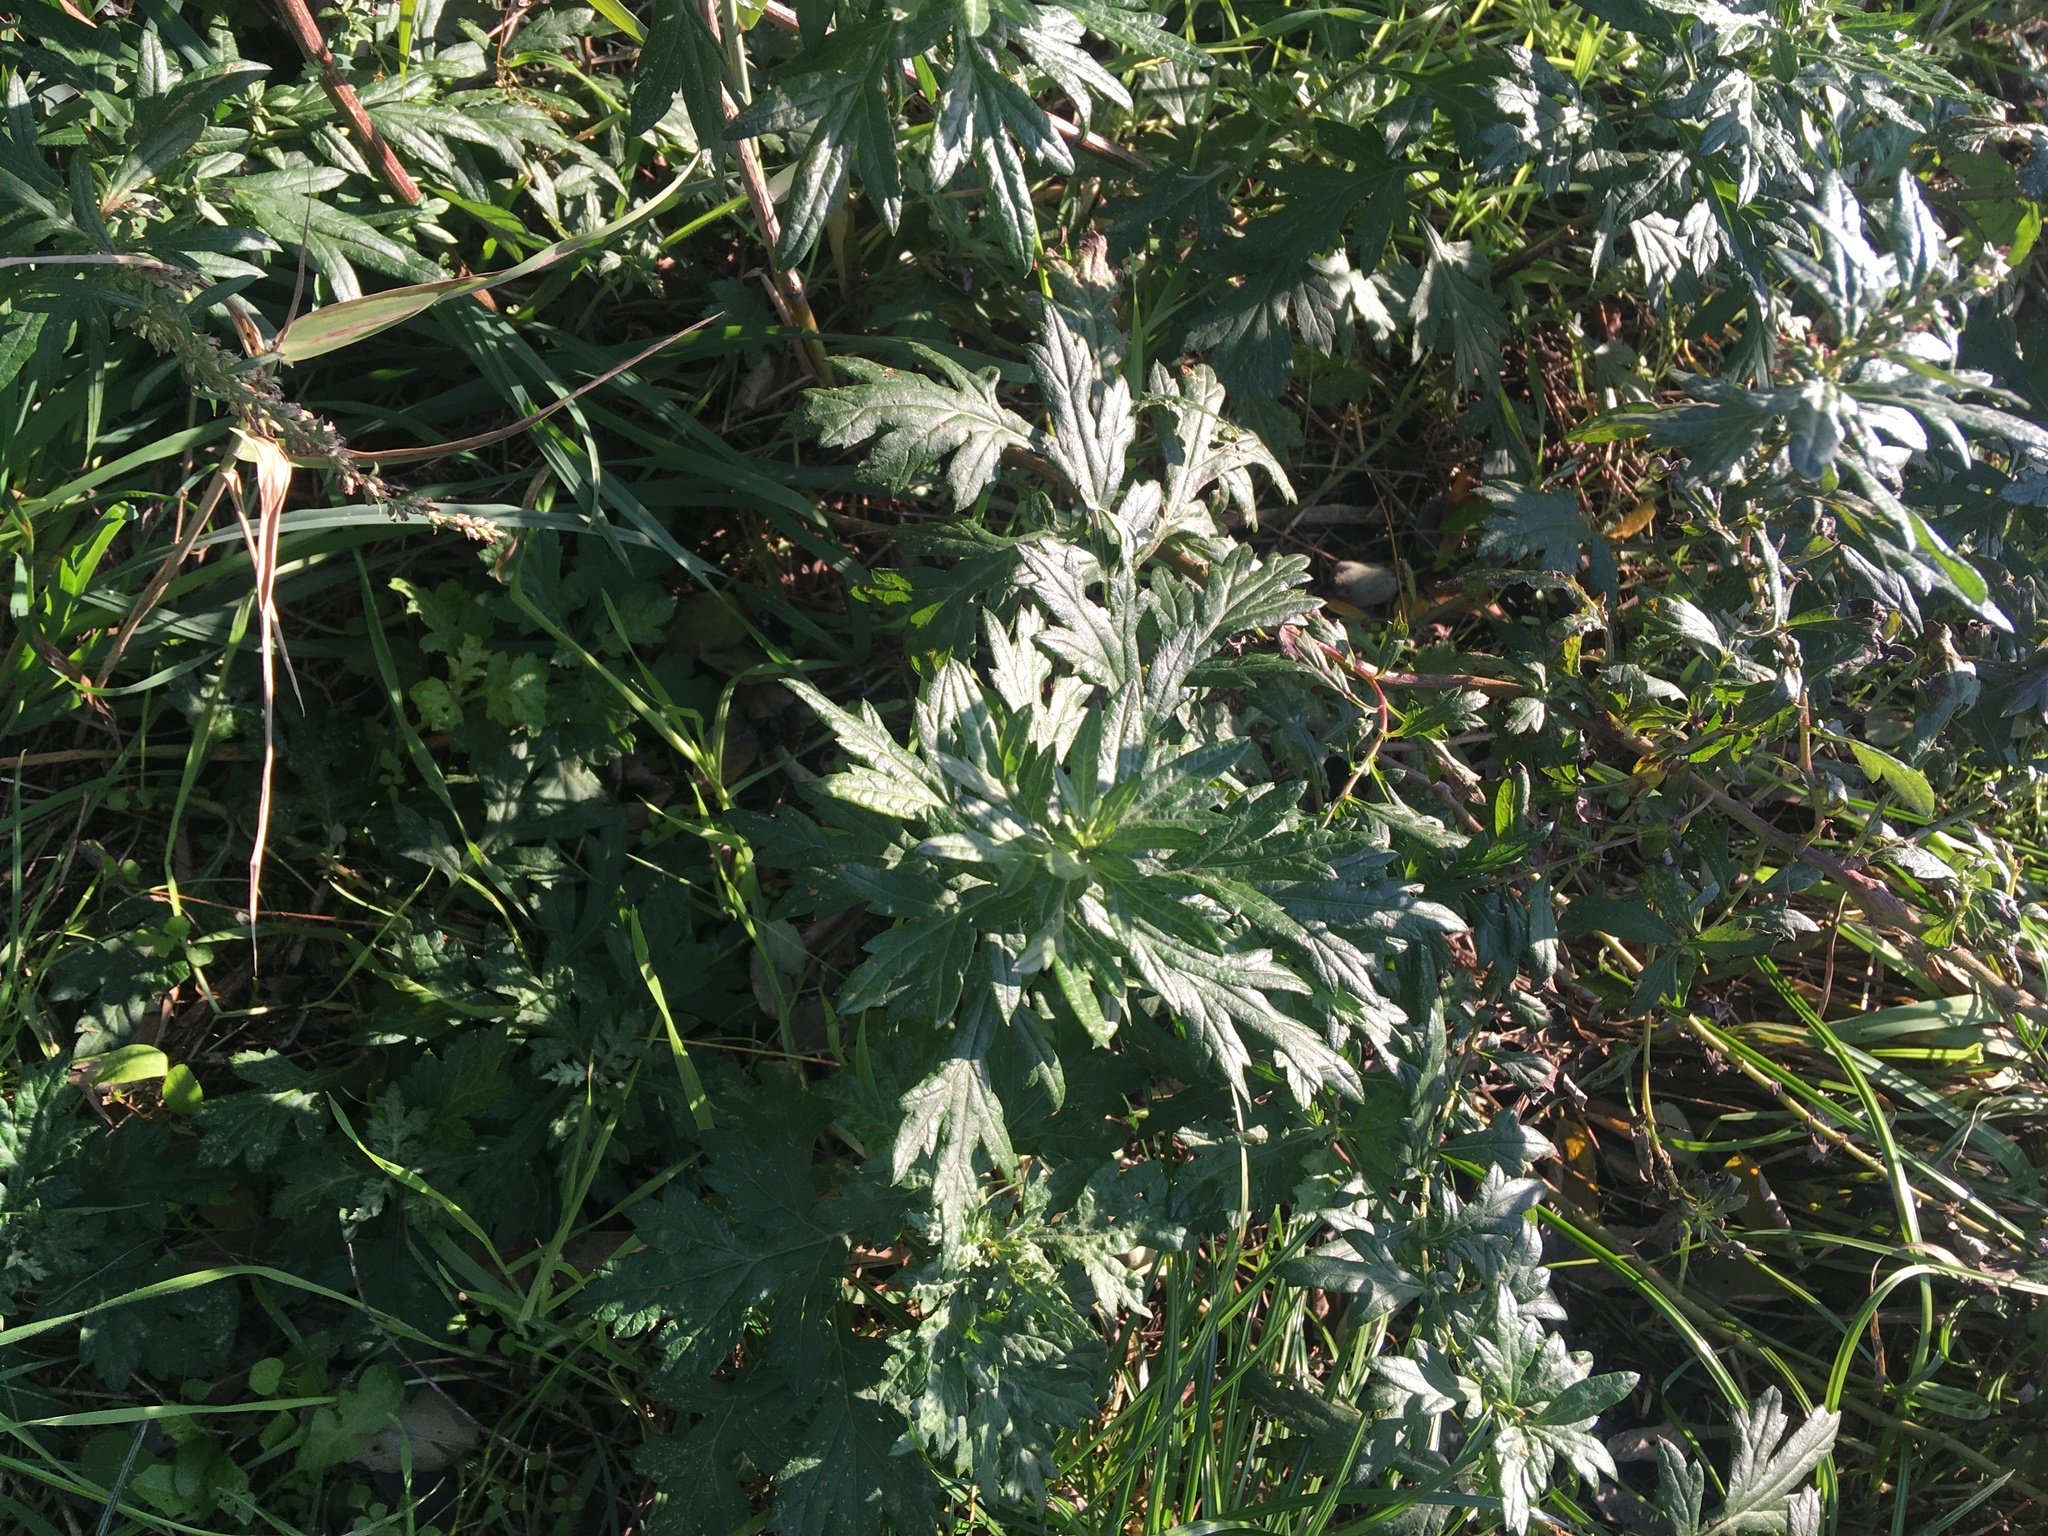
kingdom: Plantae
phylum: Tracheophyta
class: Magnoliopsida
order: Asterales
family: Asteraceae
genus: Artemisia
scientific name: Artemisia vulgaris
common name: Mugwort
